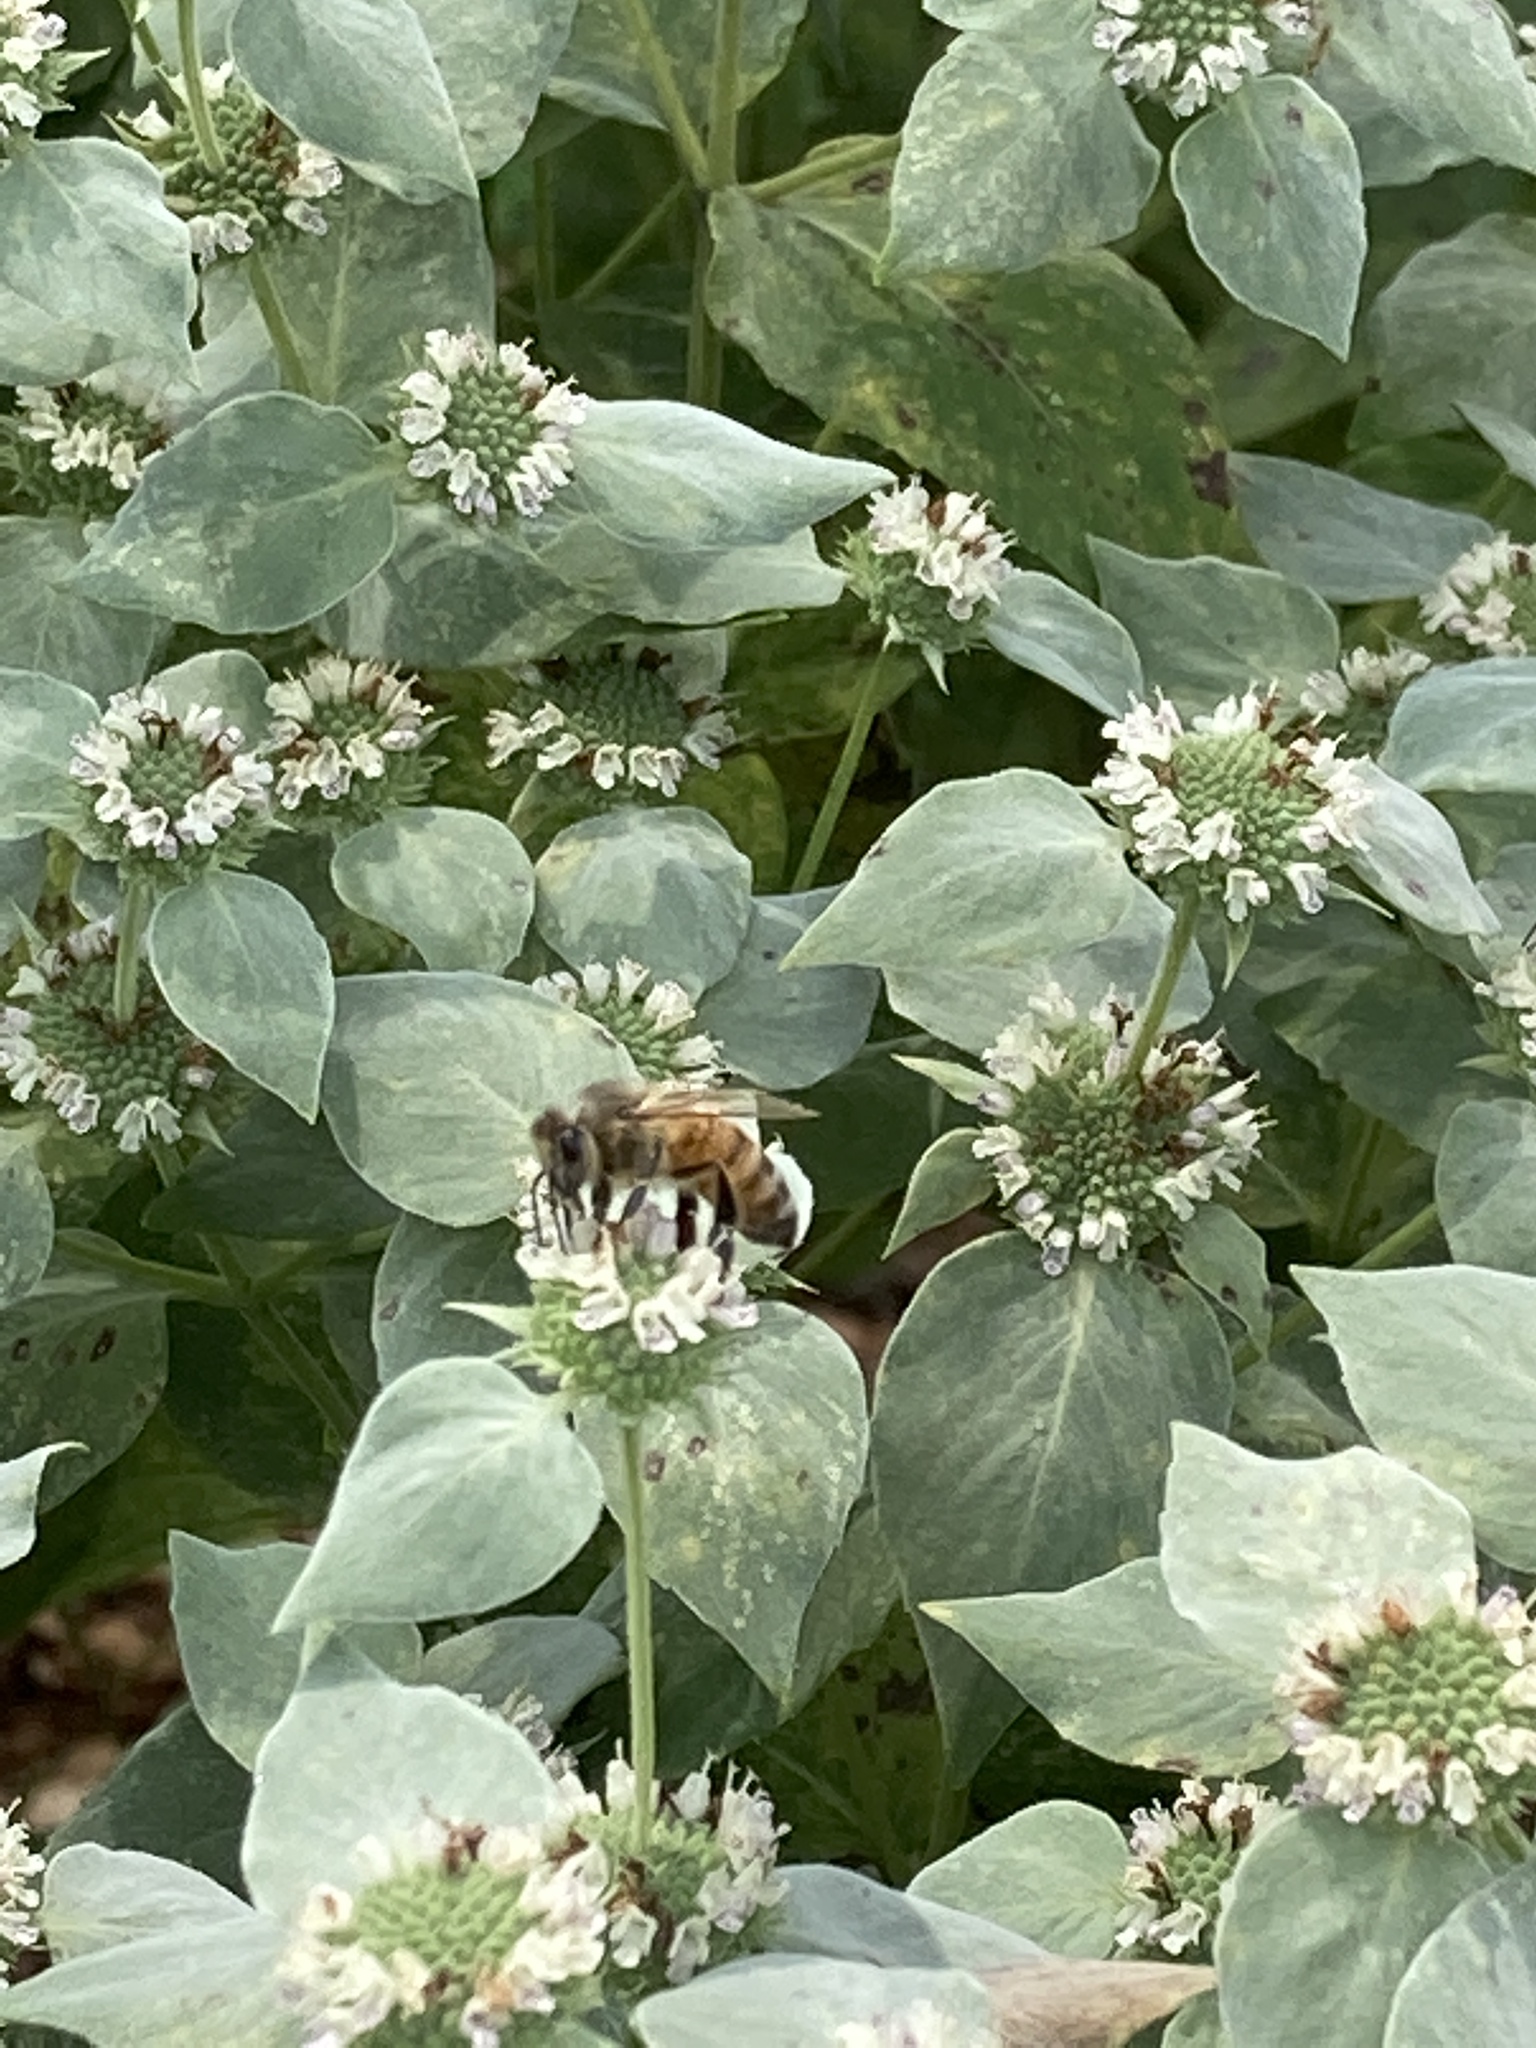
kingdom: Animalia
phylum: Arthropoda
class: Insecta
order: Hymenoptera
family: Apidae
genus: Apis
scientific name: Apis mellifera
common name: Honey bee
